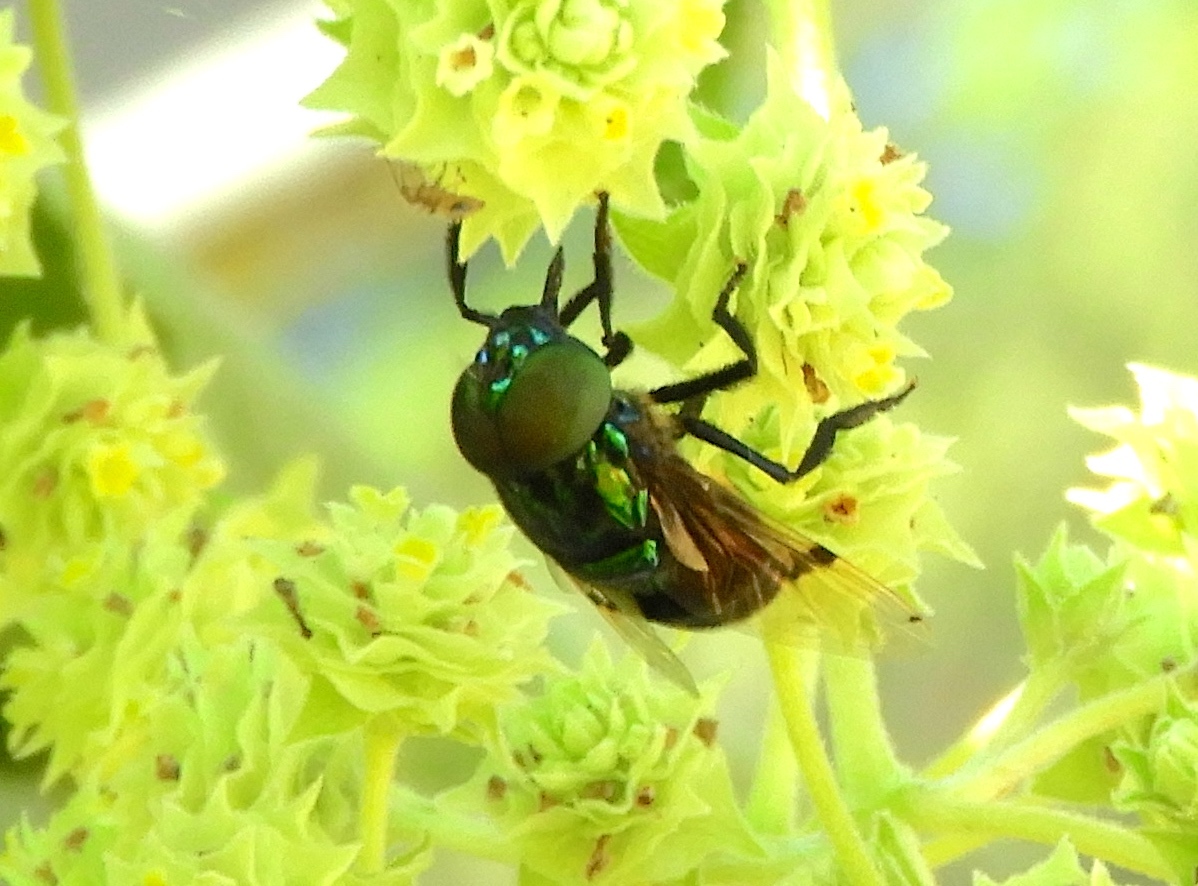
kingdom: Animalia
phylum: Arthropoda
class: Insecta
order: Diptera
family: Syrphidae
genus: Ornidia
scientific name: Ornidia obesa
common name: Syrphid fly
